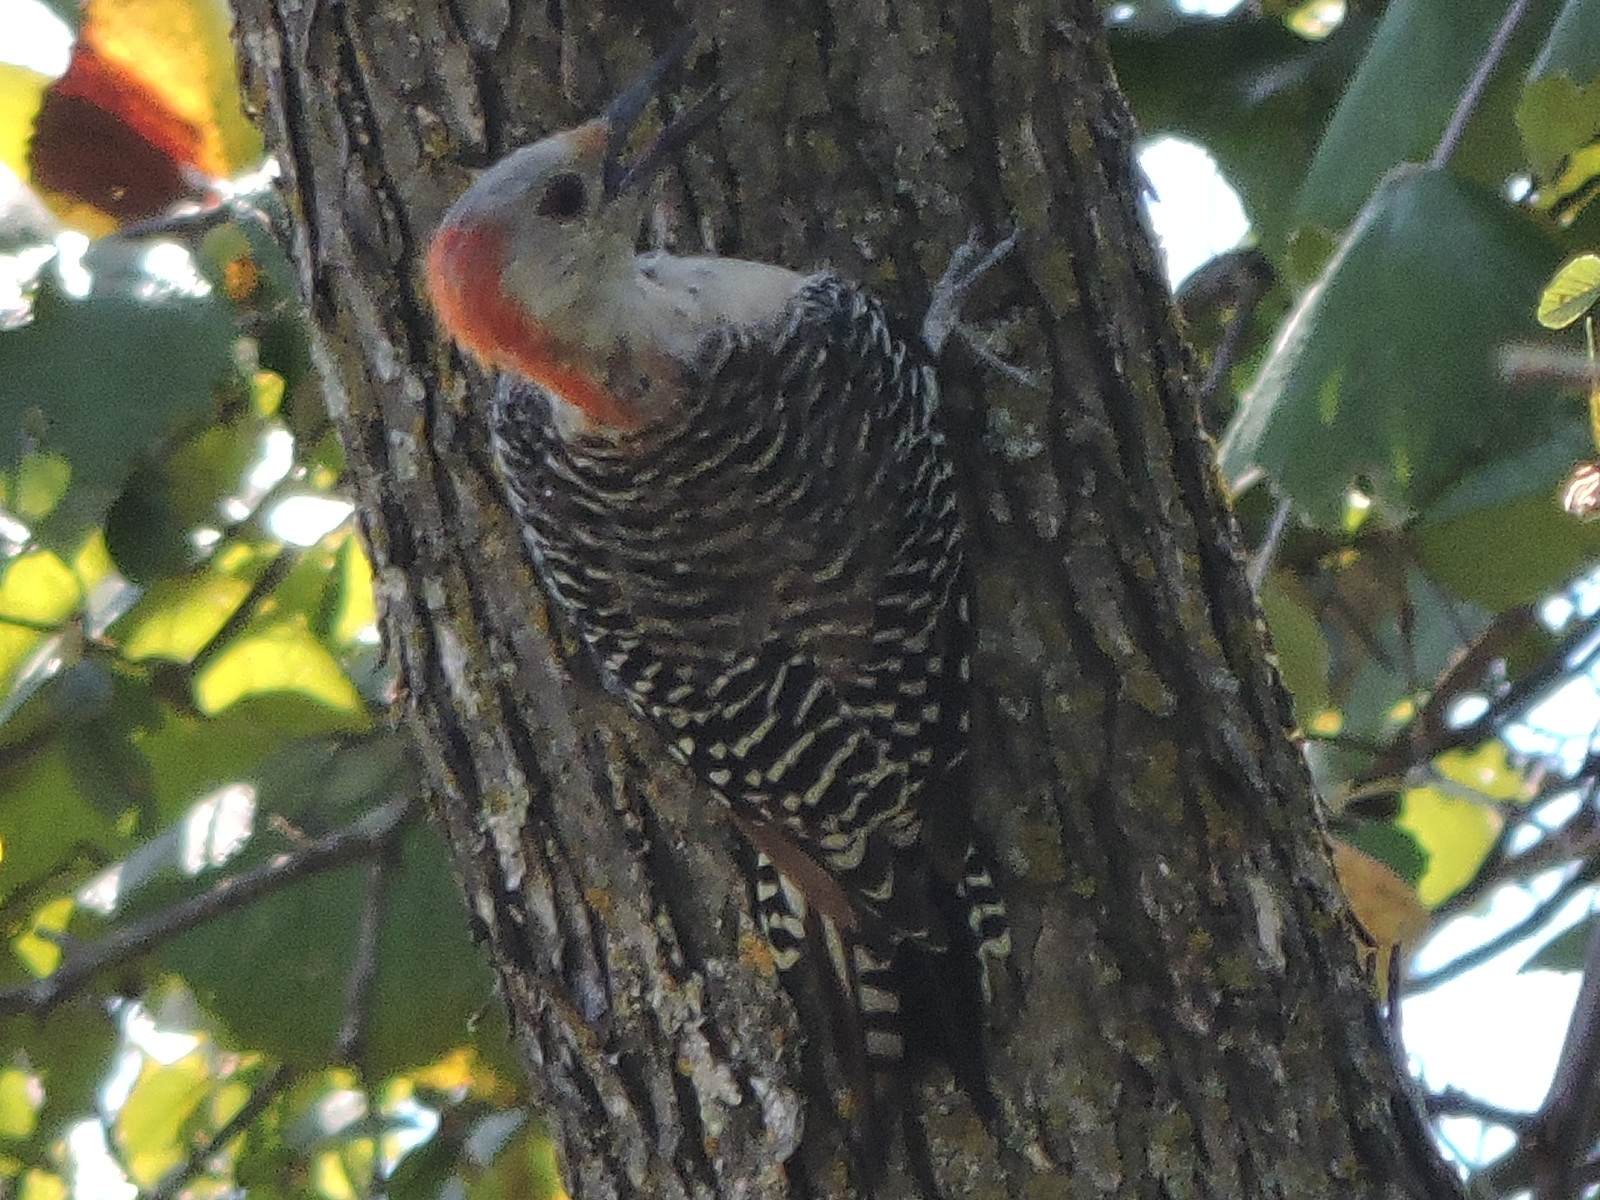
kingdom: Animalia
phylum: Chordata
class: Aves
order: Piciformes
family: Picidae
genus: Melanerpes
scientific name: Melanerpes carolinus
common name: Red-bellied woodpecker
